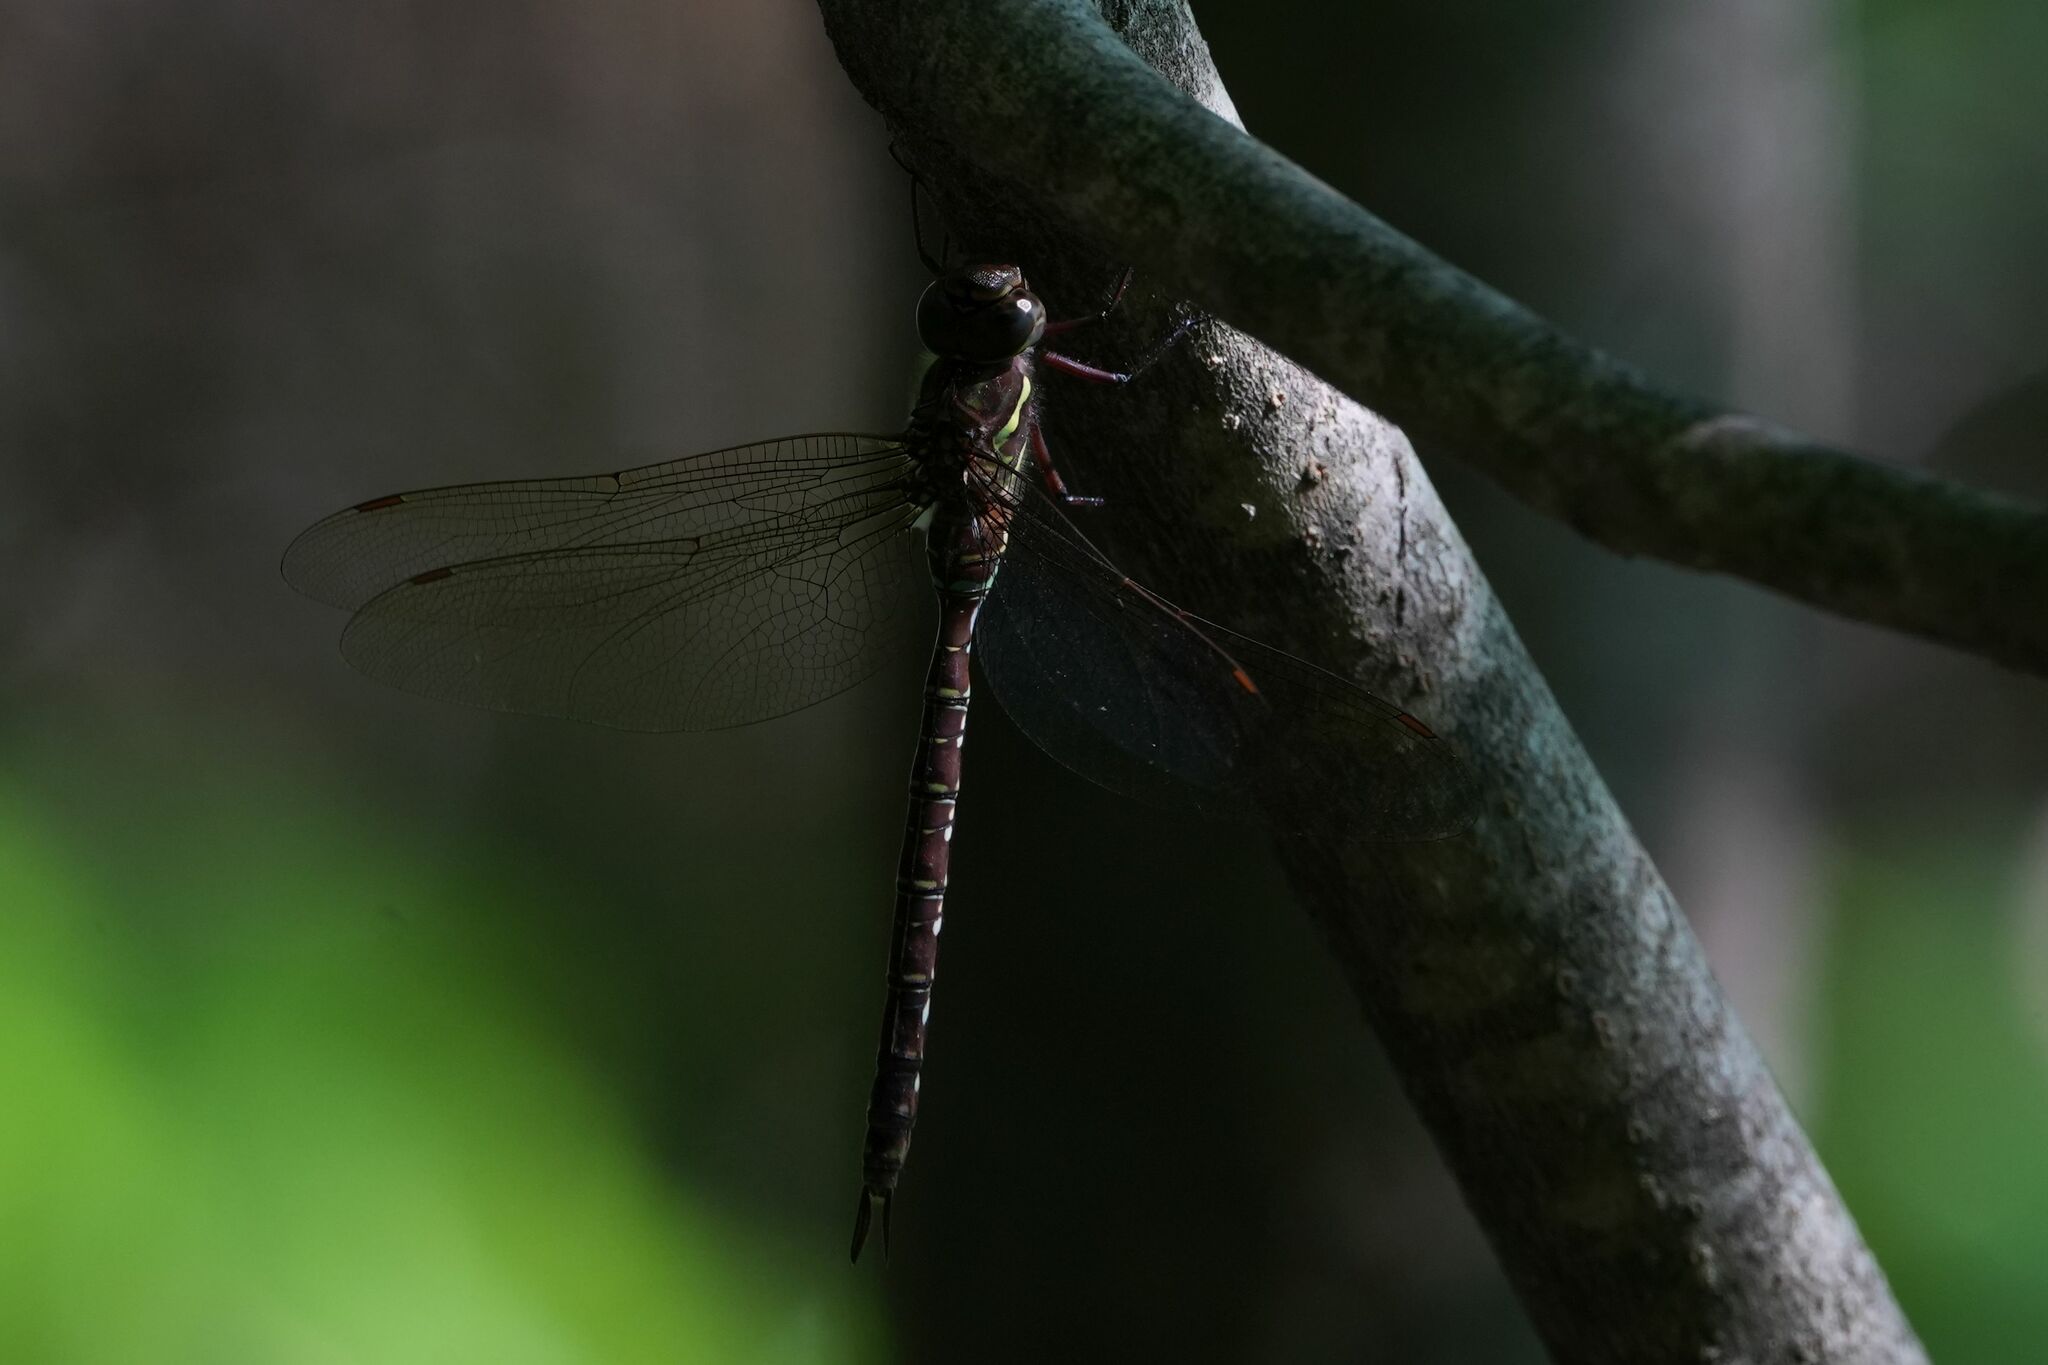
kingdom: Animalia
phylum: Arthropoda
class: Insecta
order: Odonata
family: Aeshnidae
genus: Aeshna
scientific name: Aeshna umbrosa
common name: Shadow darner
